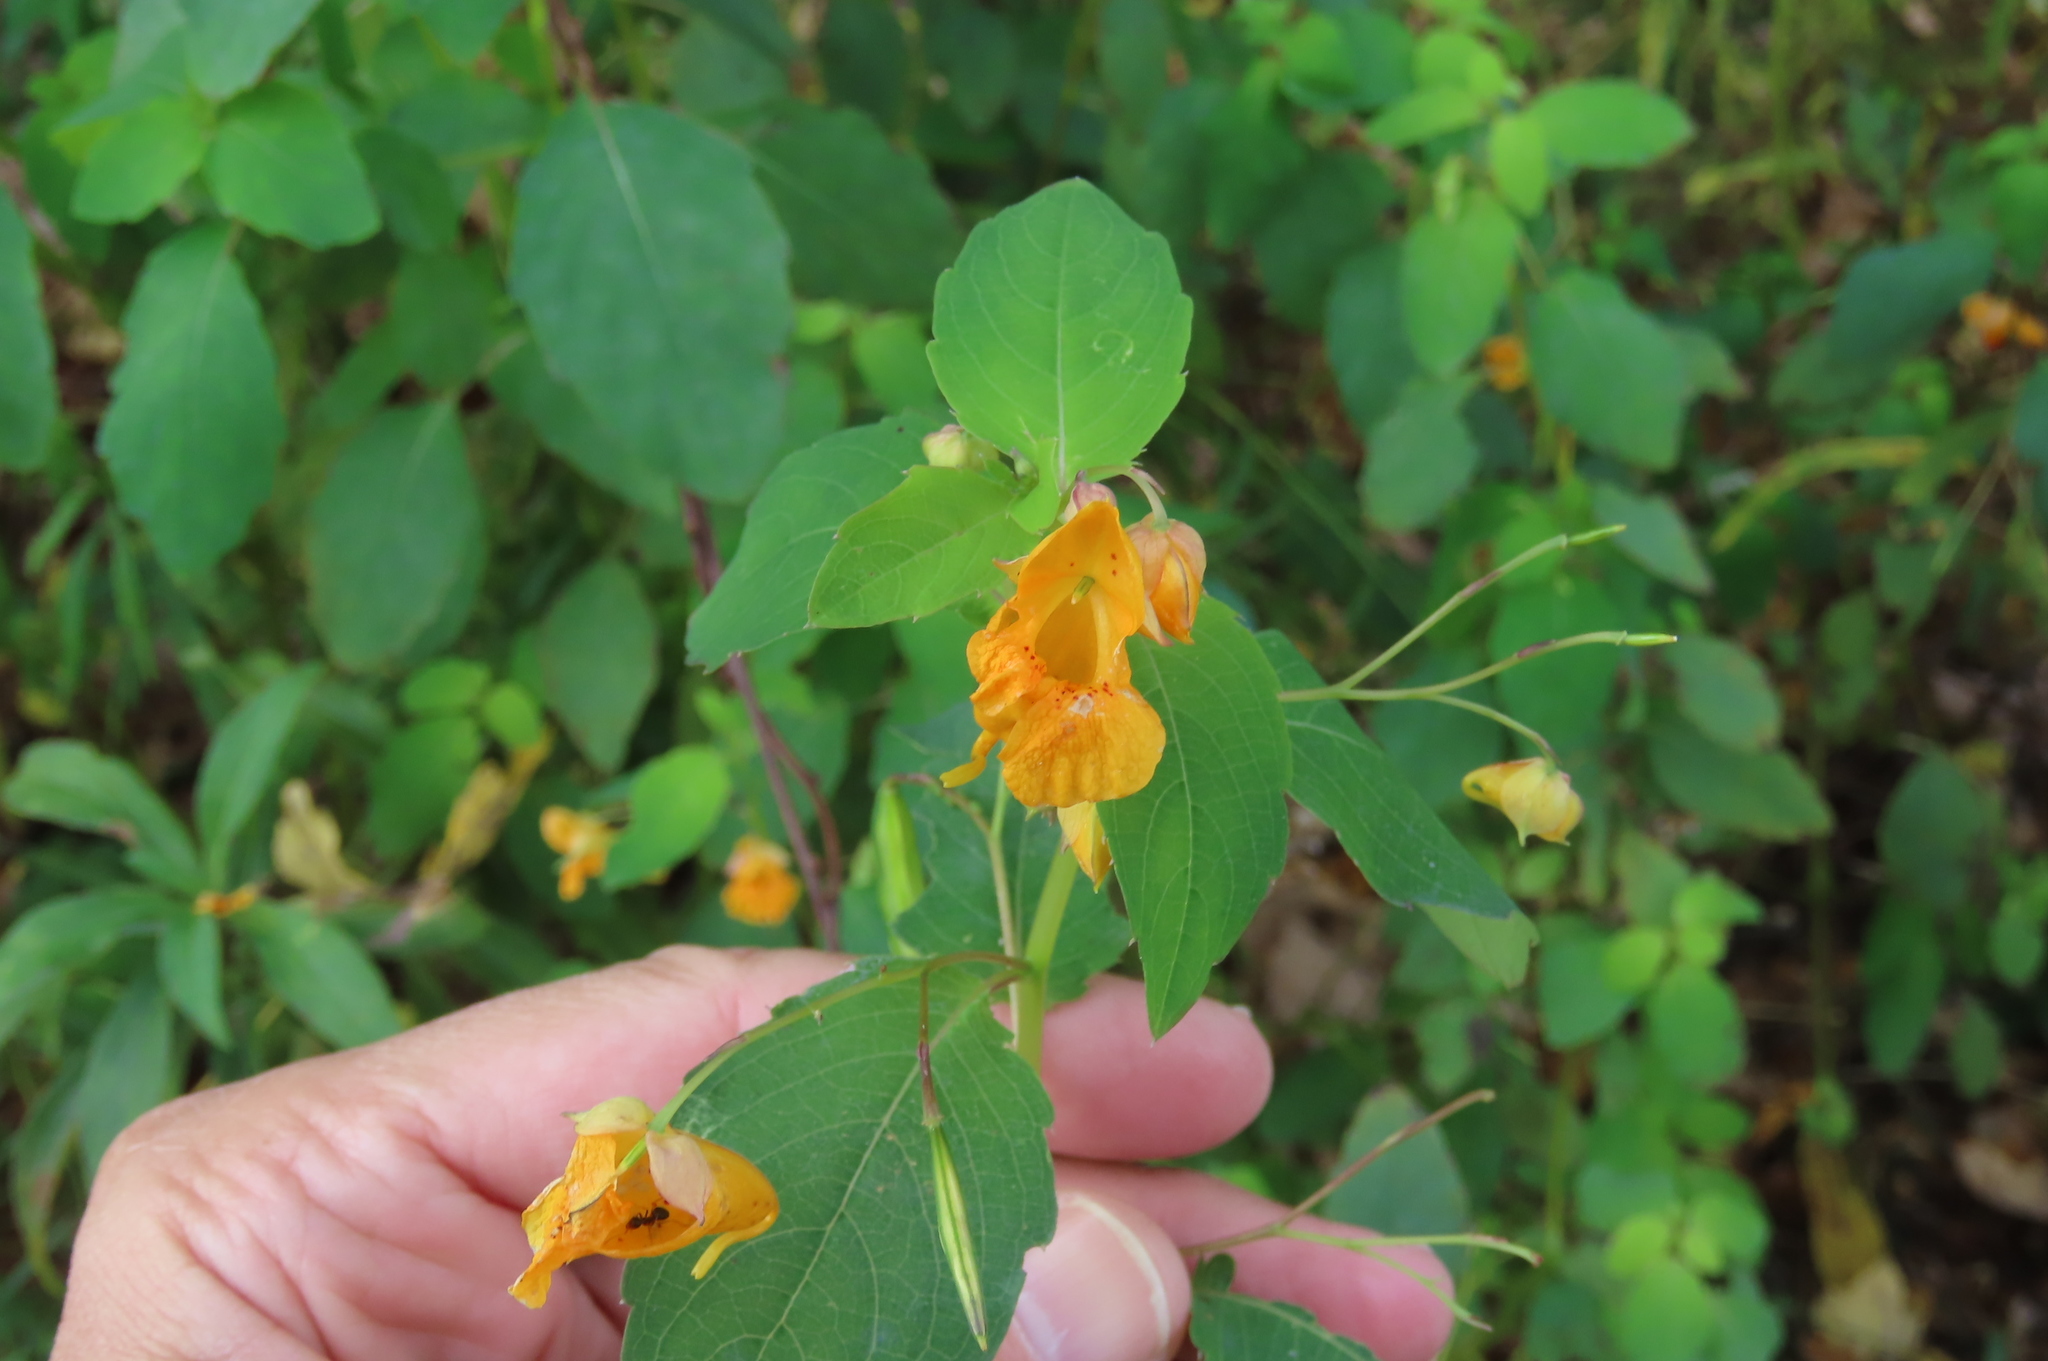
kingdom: Plantae
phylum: Tracheophyta
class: Magnoliopsida
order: Ericales
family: Balsaminaceae
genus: Impatiens
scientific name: Impatiens capensis
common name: Orange balsam
